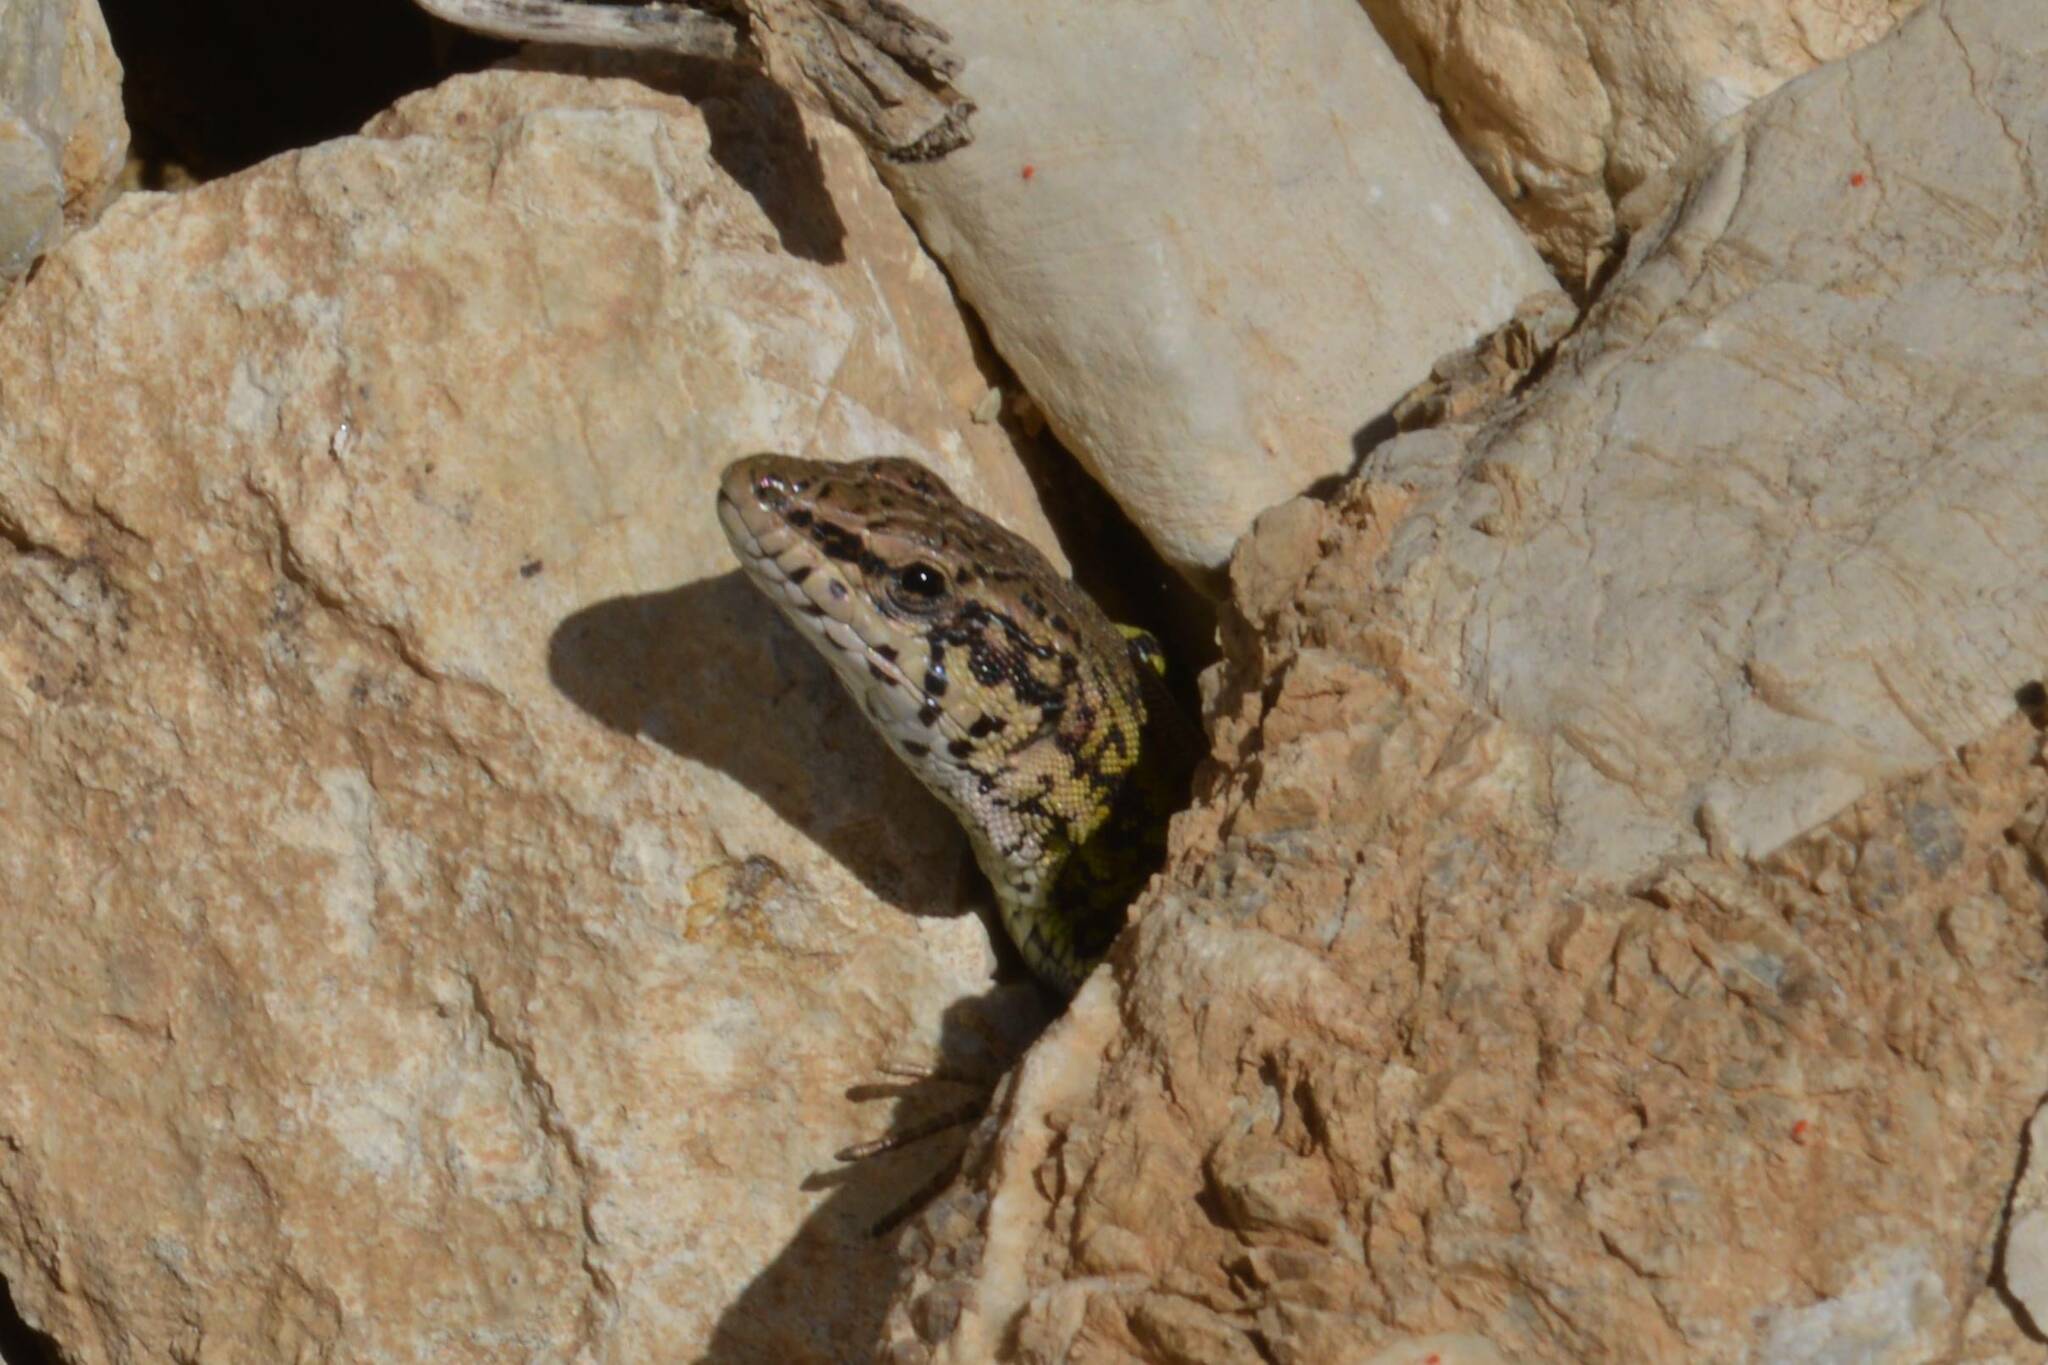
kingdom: Animalia
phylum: Chordata
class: Squamata
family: Lacertidae
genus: Podarcis
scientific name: Podarcis vaucheri
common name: Vaucher's wall lizard
